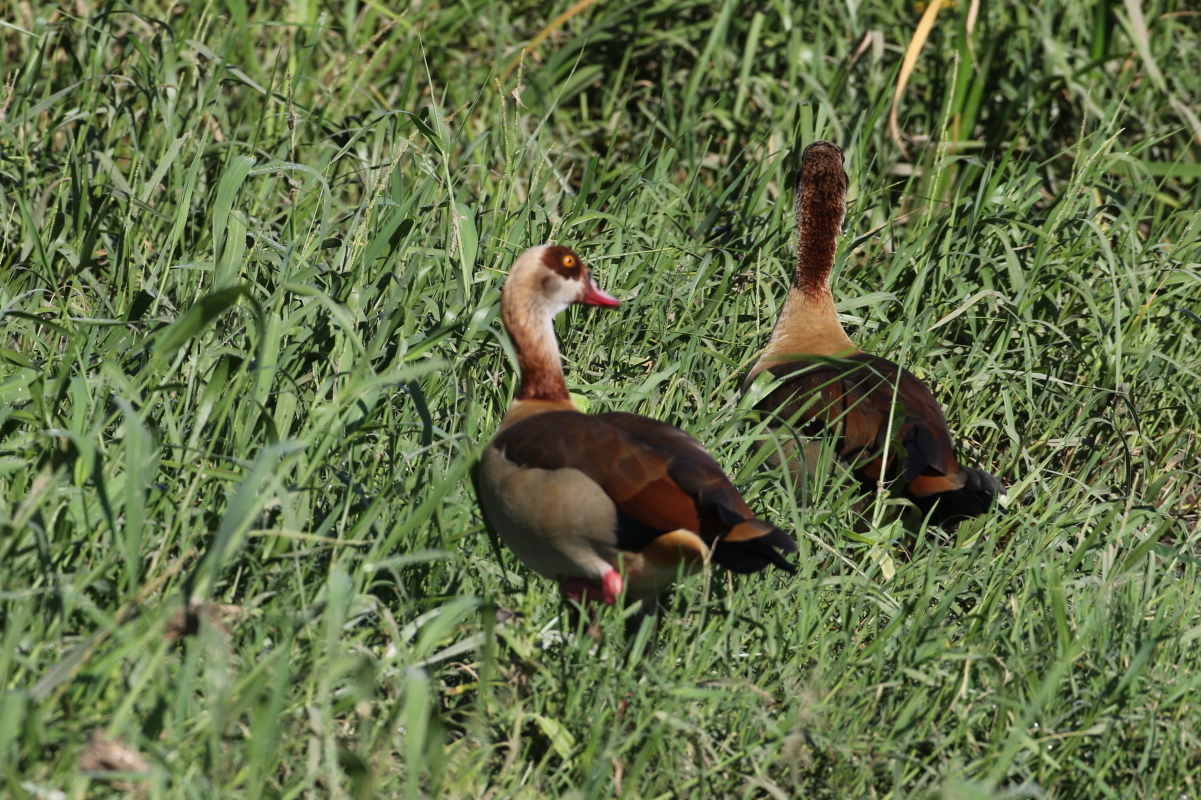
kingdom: Animalia
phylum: Chordata
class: Aves
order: Anseriformes
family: Anatidae
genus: Alopochen
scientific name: Alopochen aegyptiaca
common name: Egyptian goose
